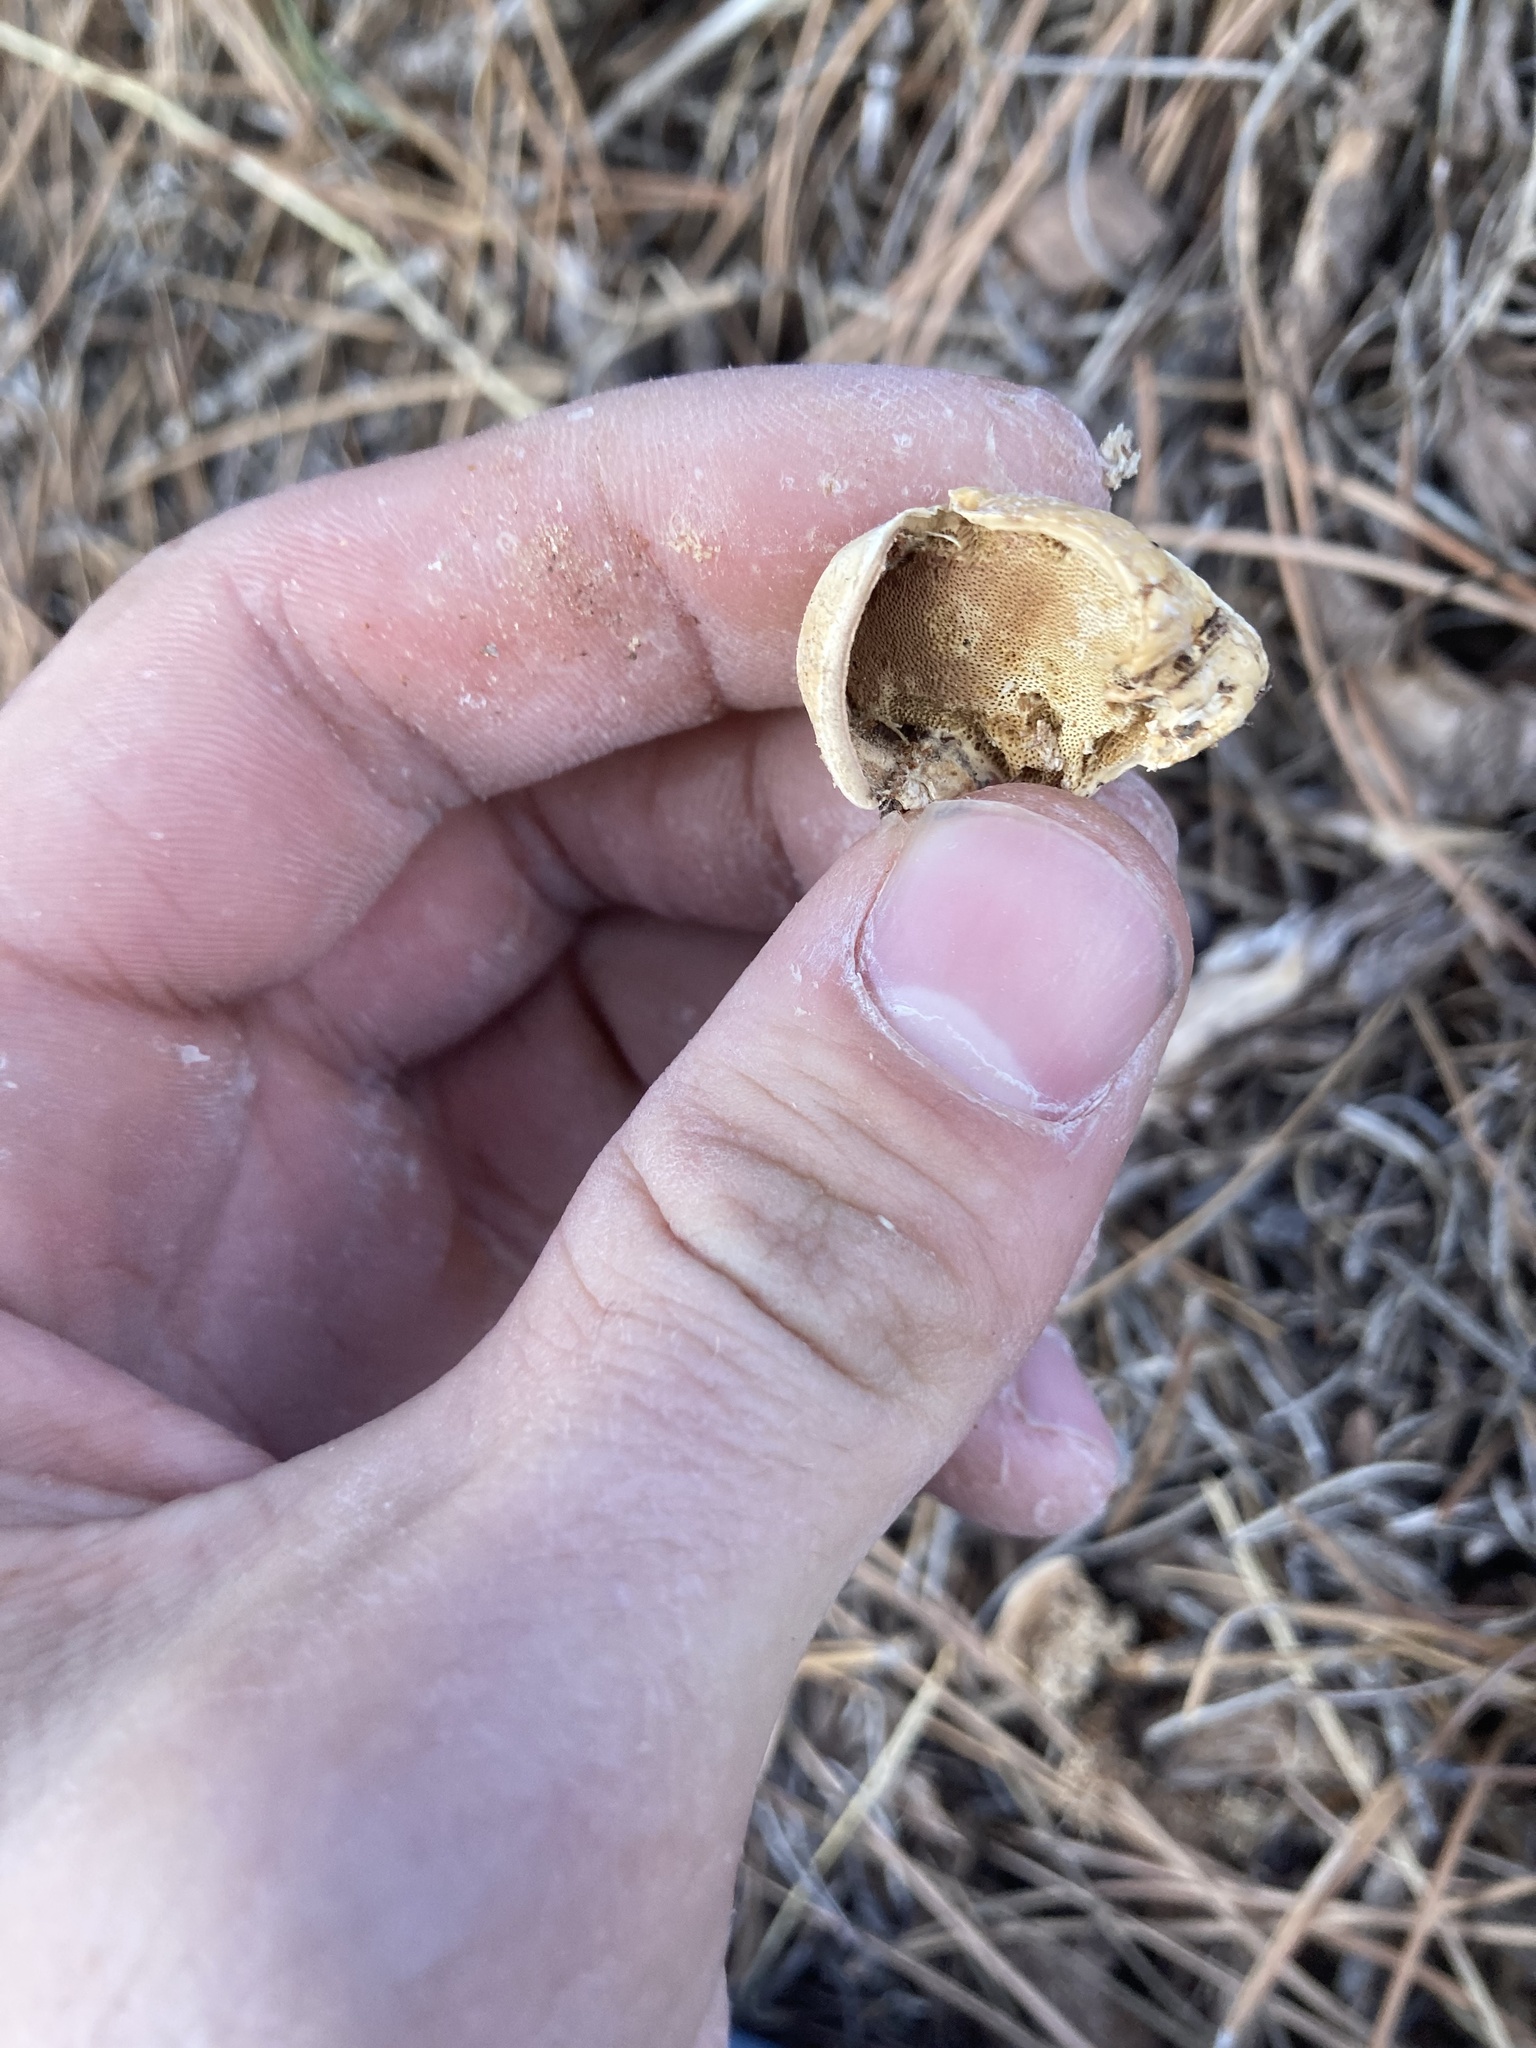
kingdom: Fungi
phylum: Basidiomycota
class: Agaricomycetes
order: Polyporales
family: Polyporaceae
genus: Cryptoporus
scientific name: Cryptoporus volvatus
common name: Veiled polypore
